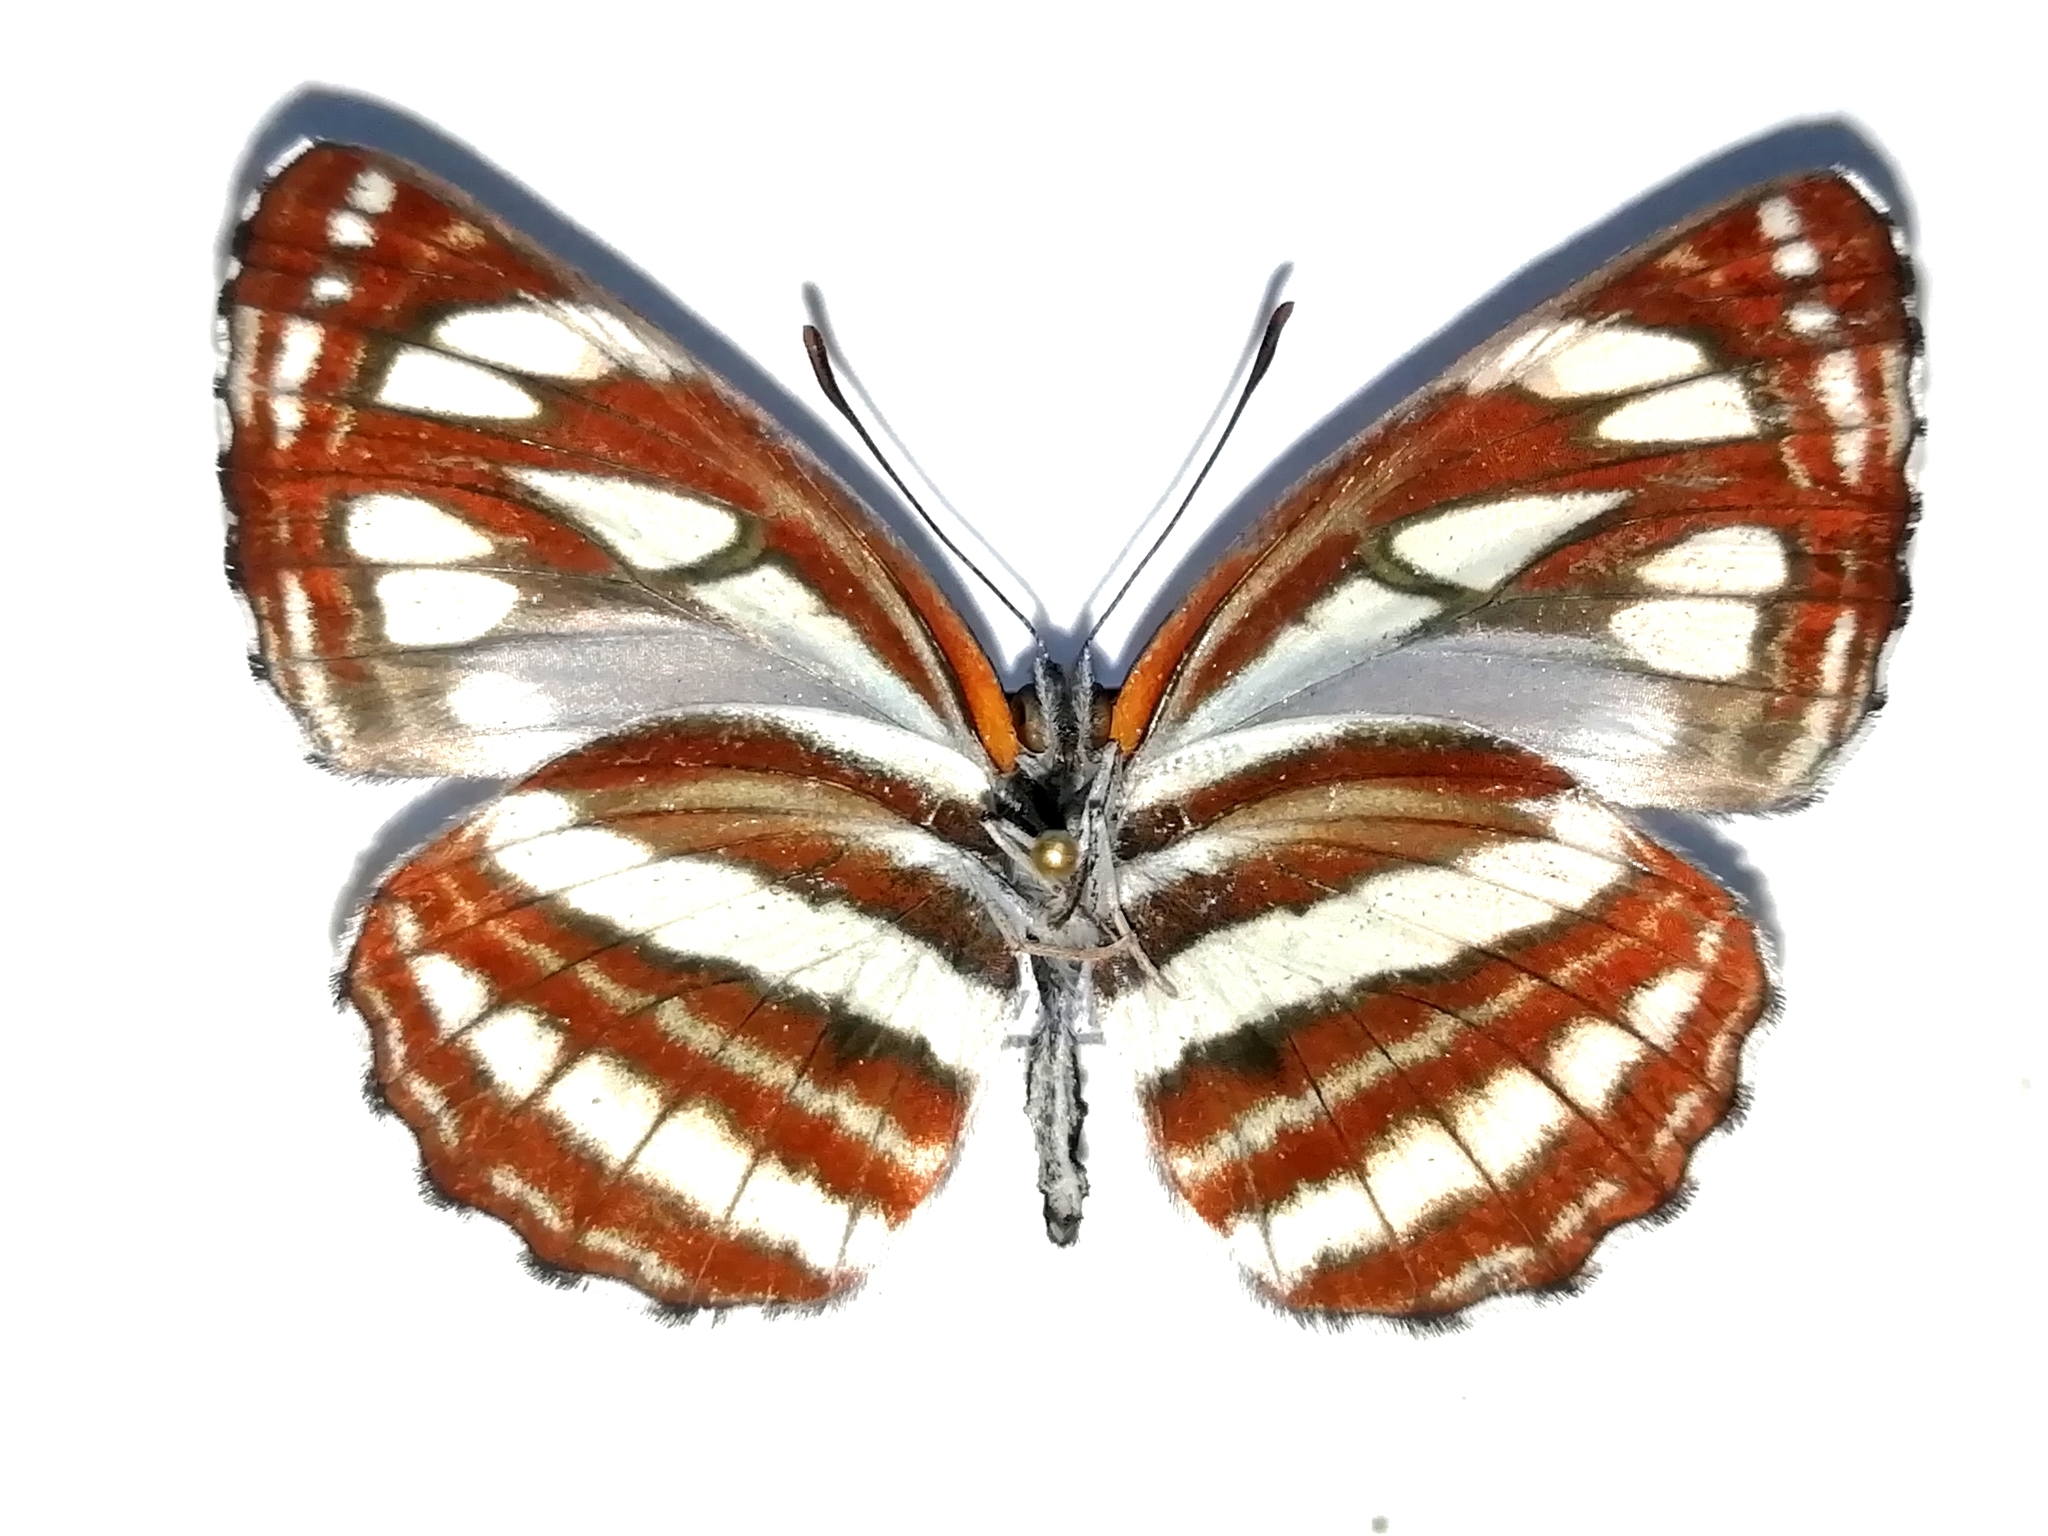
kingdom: Animalia
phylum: Arthropoda
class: Insecta
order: Lepidoptera
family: Nymphalidae
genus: Neptis
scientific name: Neptis sappho
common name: Common glider
